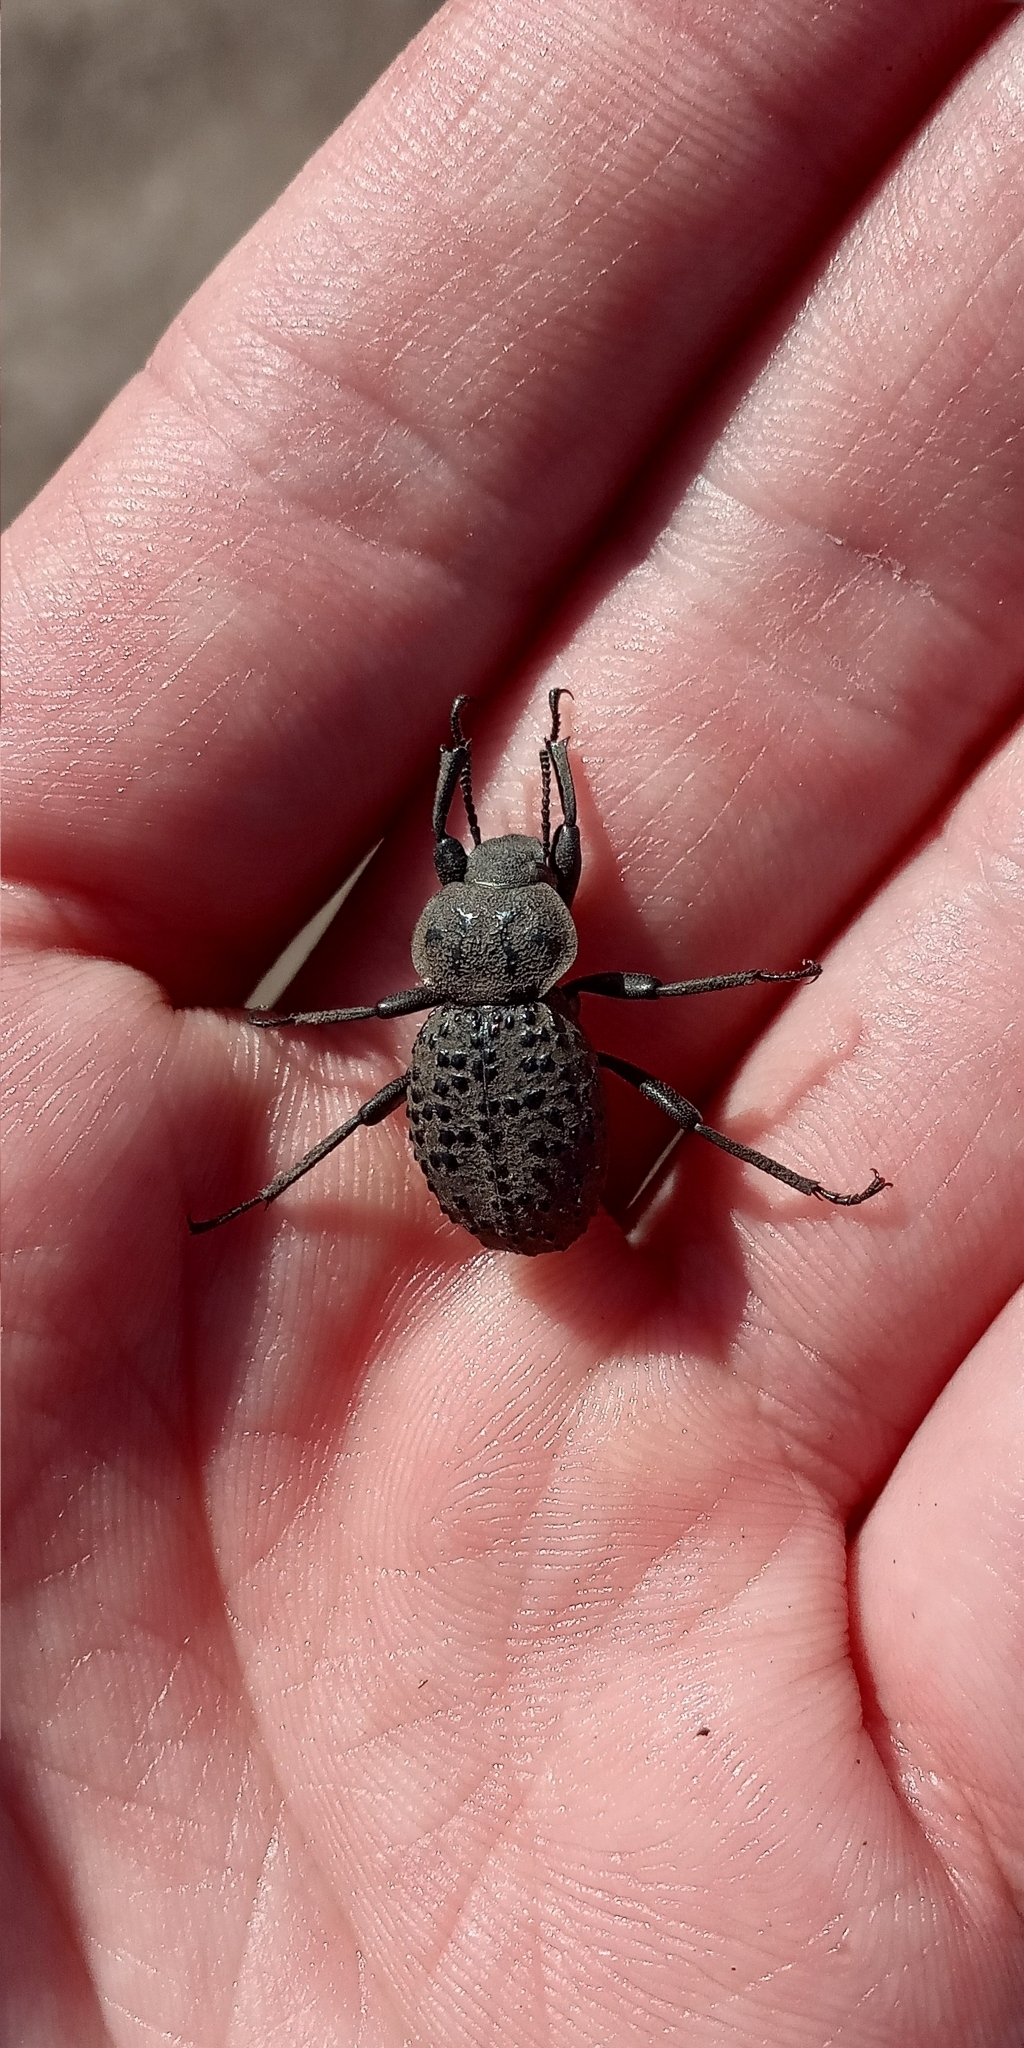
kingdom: Animalia
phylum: Arthropoda
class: Insecta
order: Coleoptera
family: Tenebrionidae
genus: Scotobius
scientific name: Scotobius pilularius
